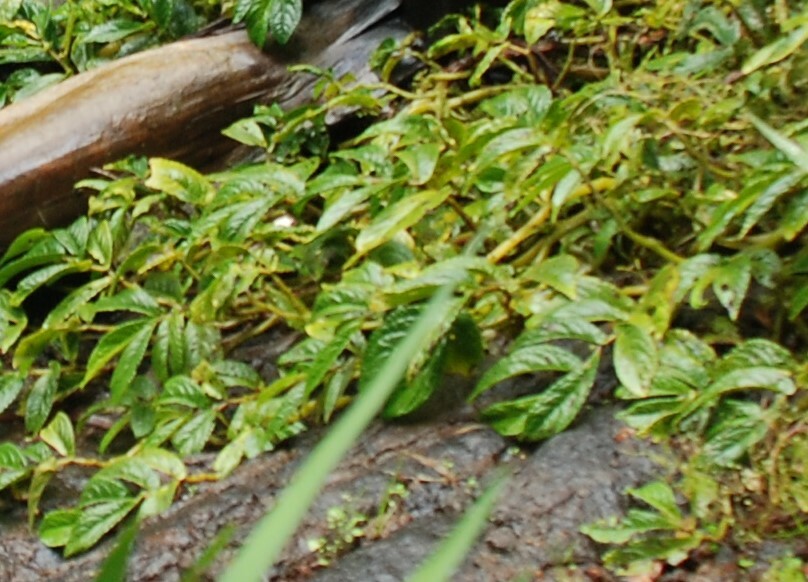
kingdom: Plantae
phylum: Tracheophyta
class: Magnoliopsida
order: Rosales
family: Urticaceae
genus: Elatostema
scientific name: Elatostema reticulatum
